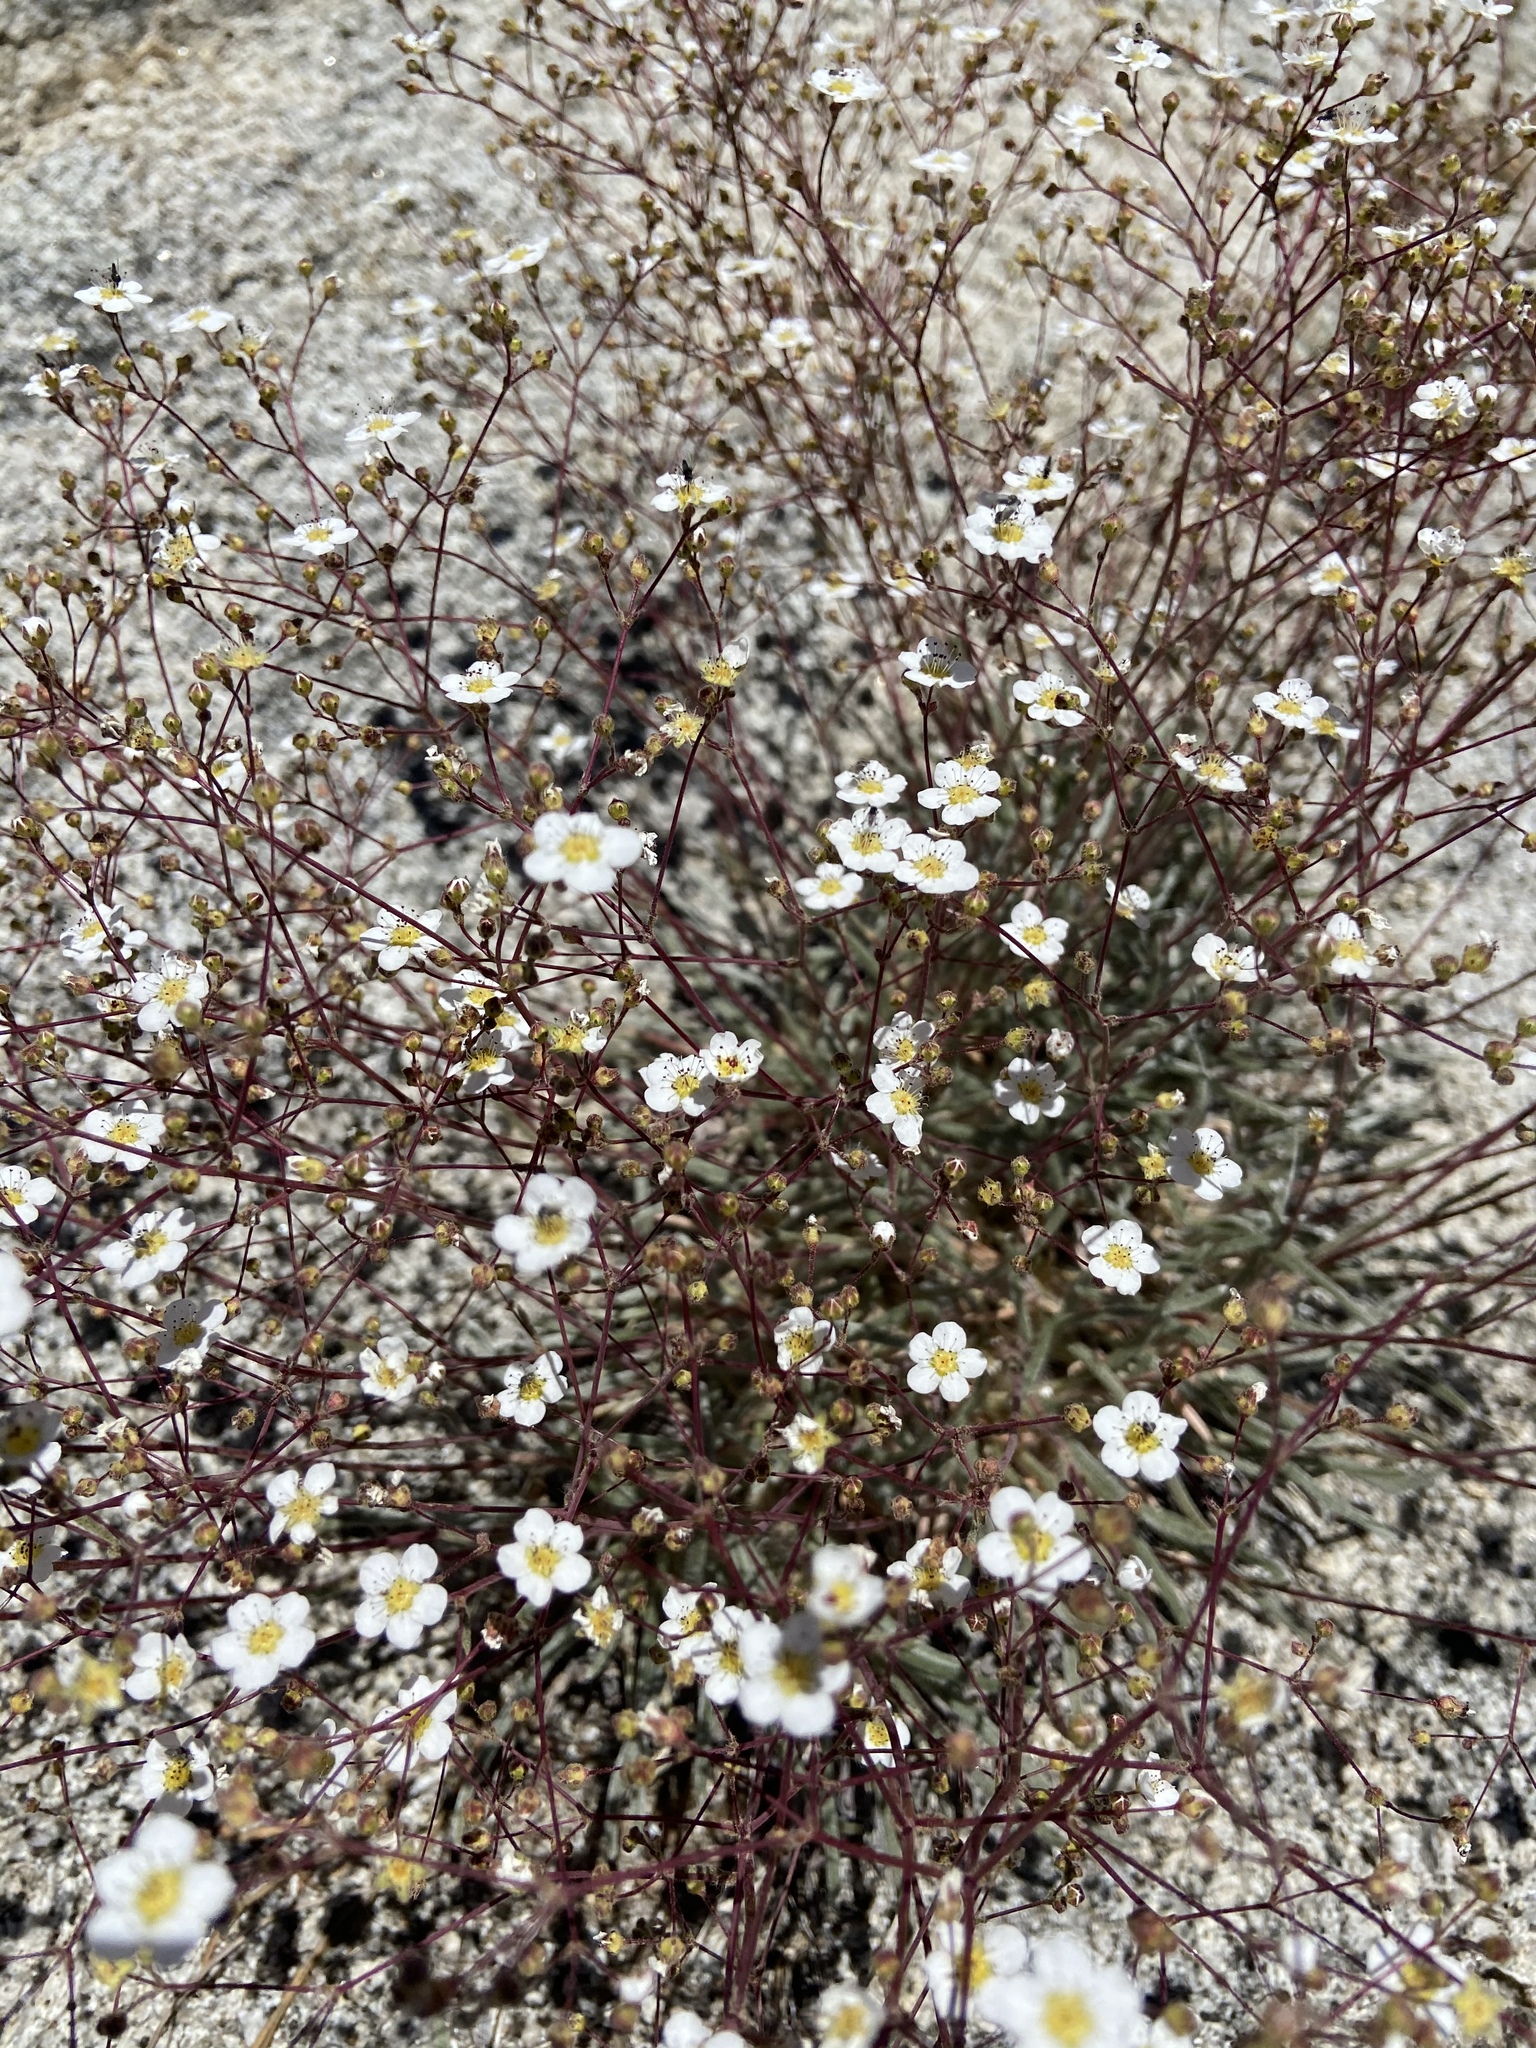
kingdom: Plantae
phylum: Tracheophyta
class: Magnoliopsida
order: Rosales
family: Rosaceae
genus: Potentilla
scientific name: Potentilla santolinoides
